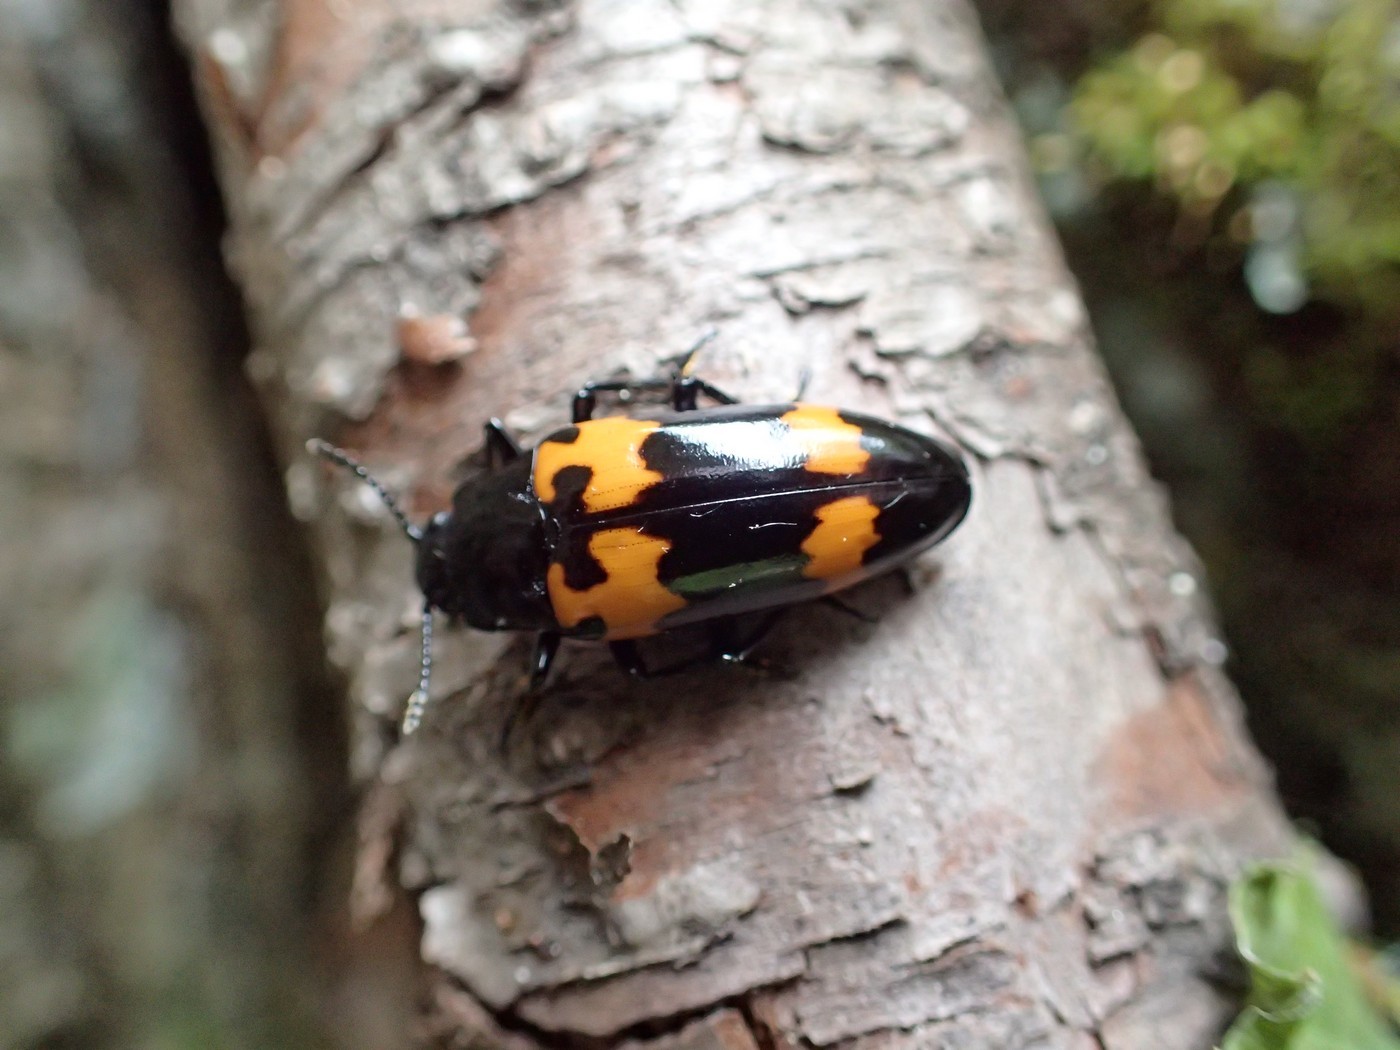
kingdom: Animalia
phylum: Arthropoda
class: Insecta
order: Coleoptera
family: Erotylidae
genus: Megalodacne
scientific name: Megalodacne heros
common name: Pleasing fungus beetle
